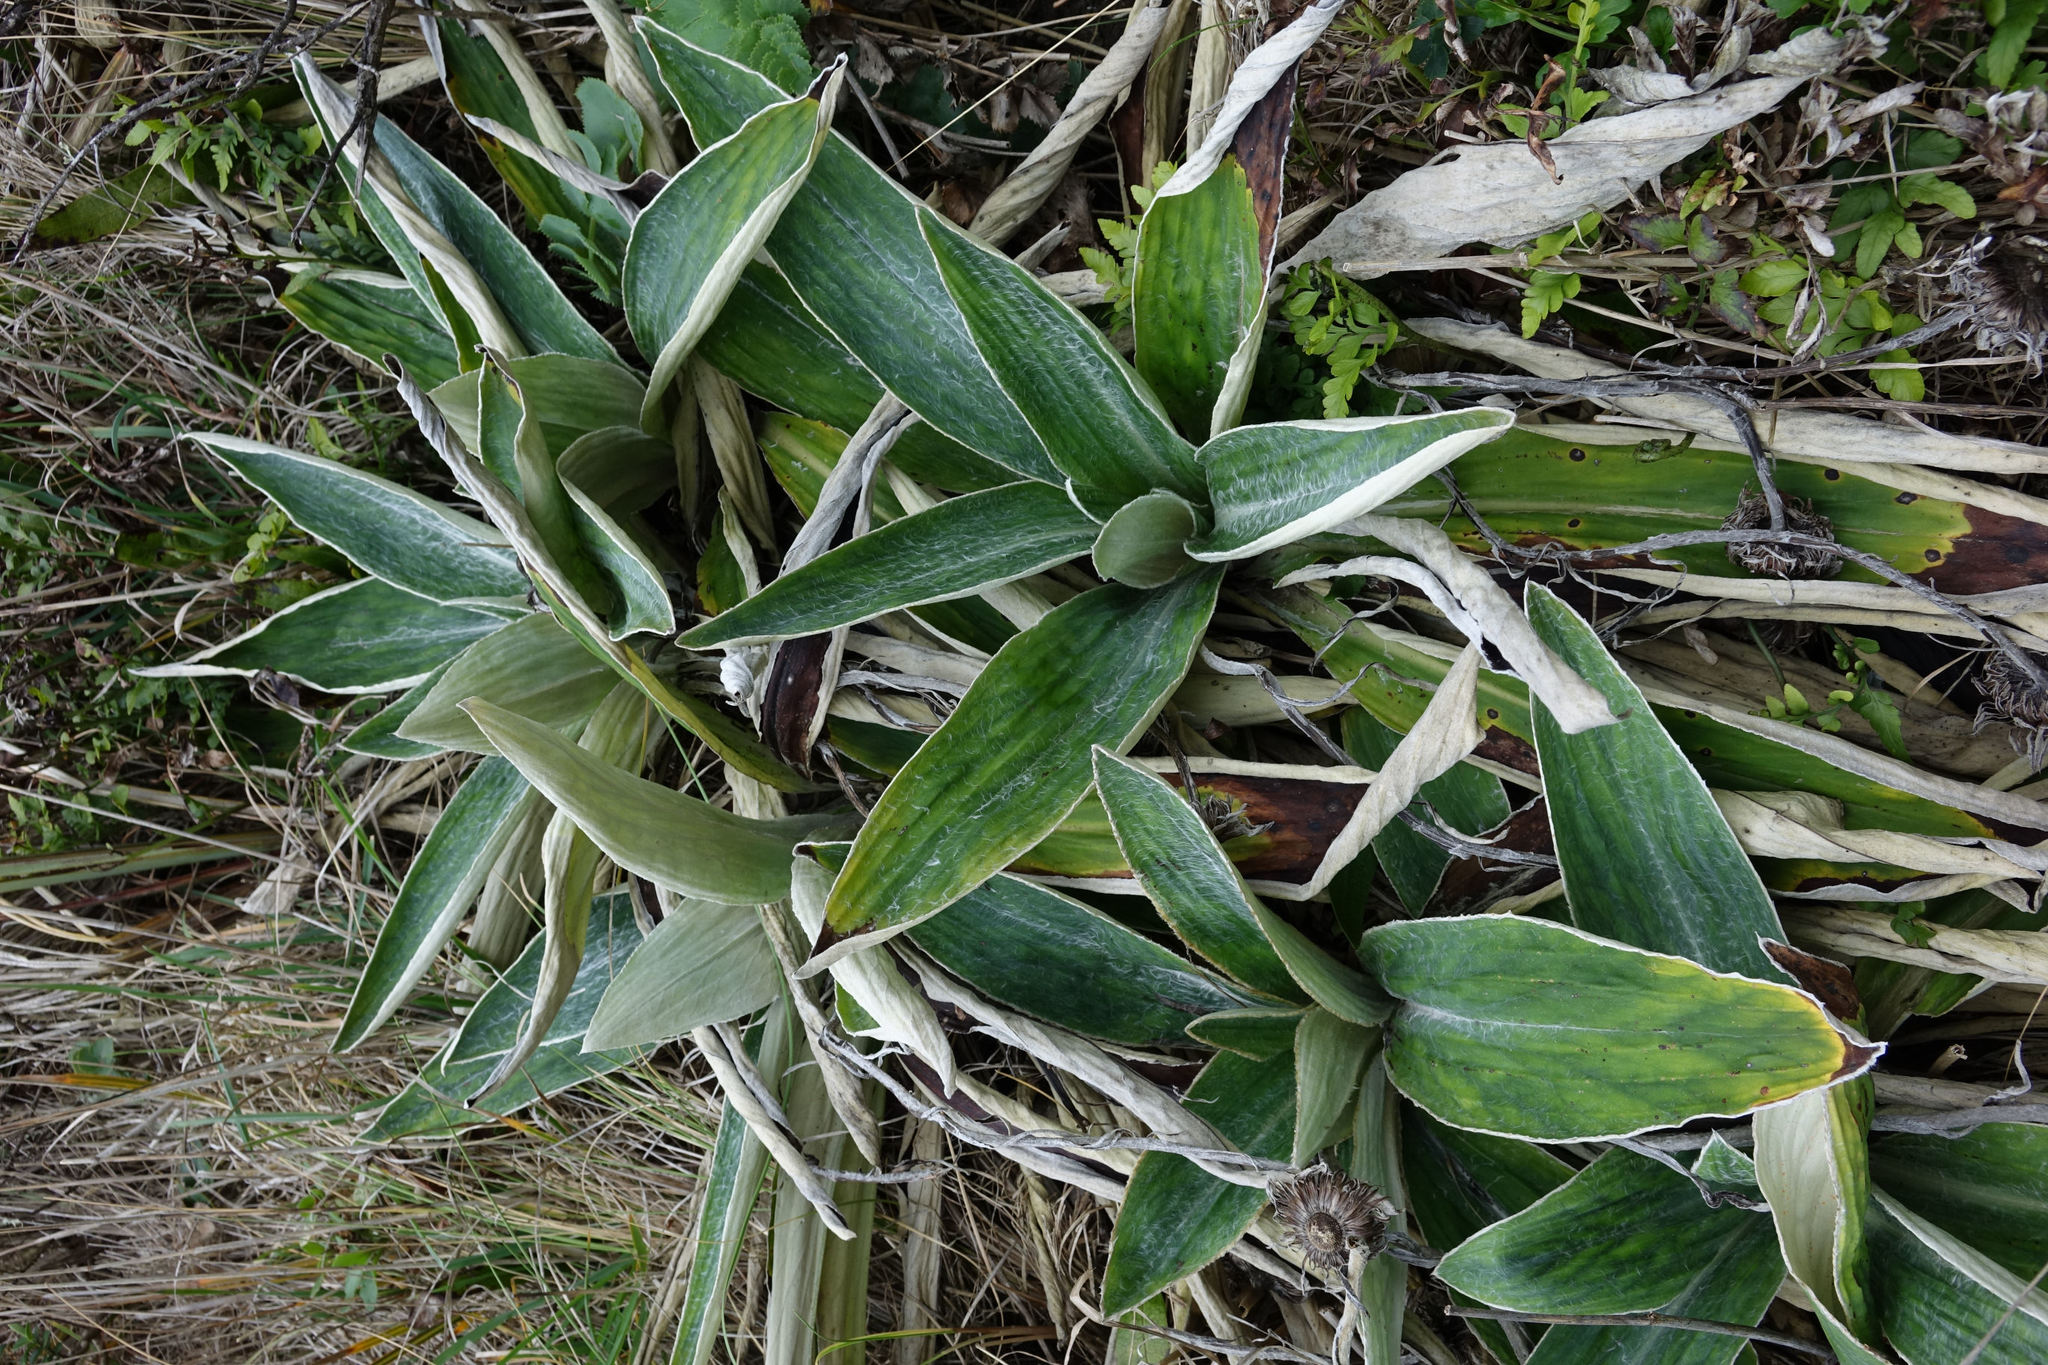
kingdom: Plantae
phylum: Tracheophyta
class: Magnoliopsida
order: Asterales
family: Asteraceae
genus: Celmisia
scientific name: Celmisia hookeri
